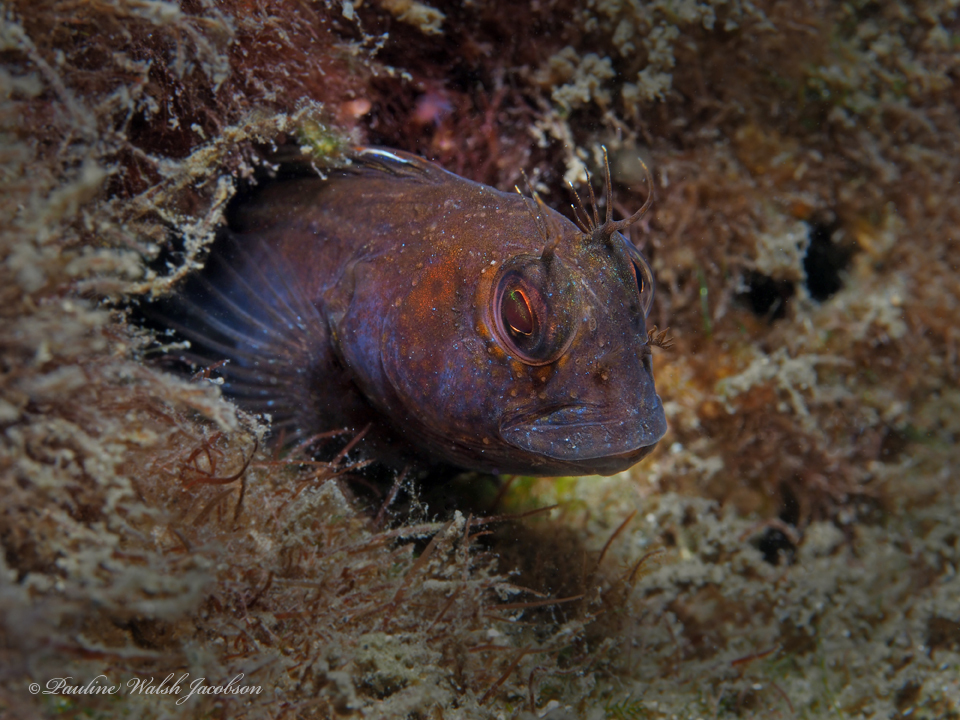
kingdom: Animalia
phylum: Chordata
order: Perciformes
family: Blenniidae
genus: Parablennius
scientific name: Parablennius marmoreus
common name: Seaweed blenny
